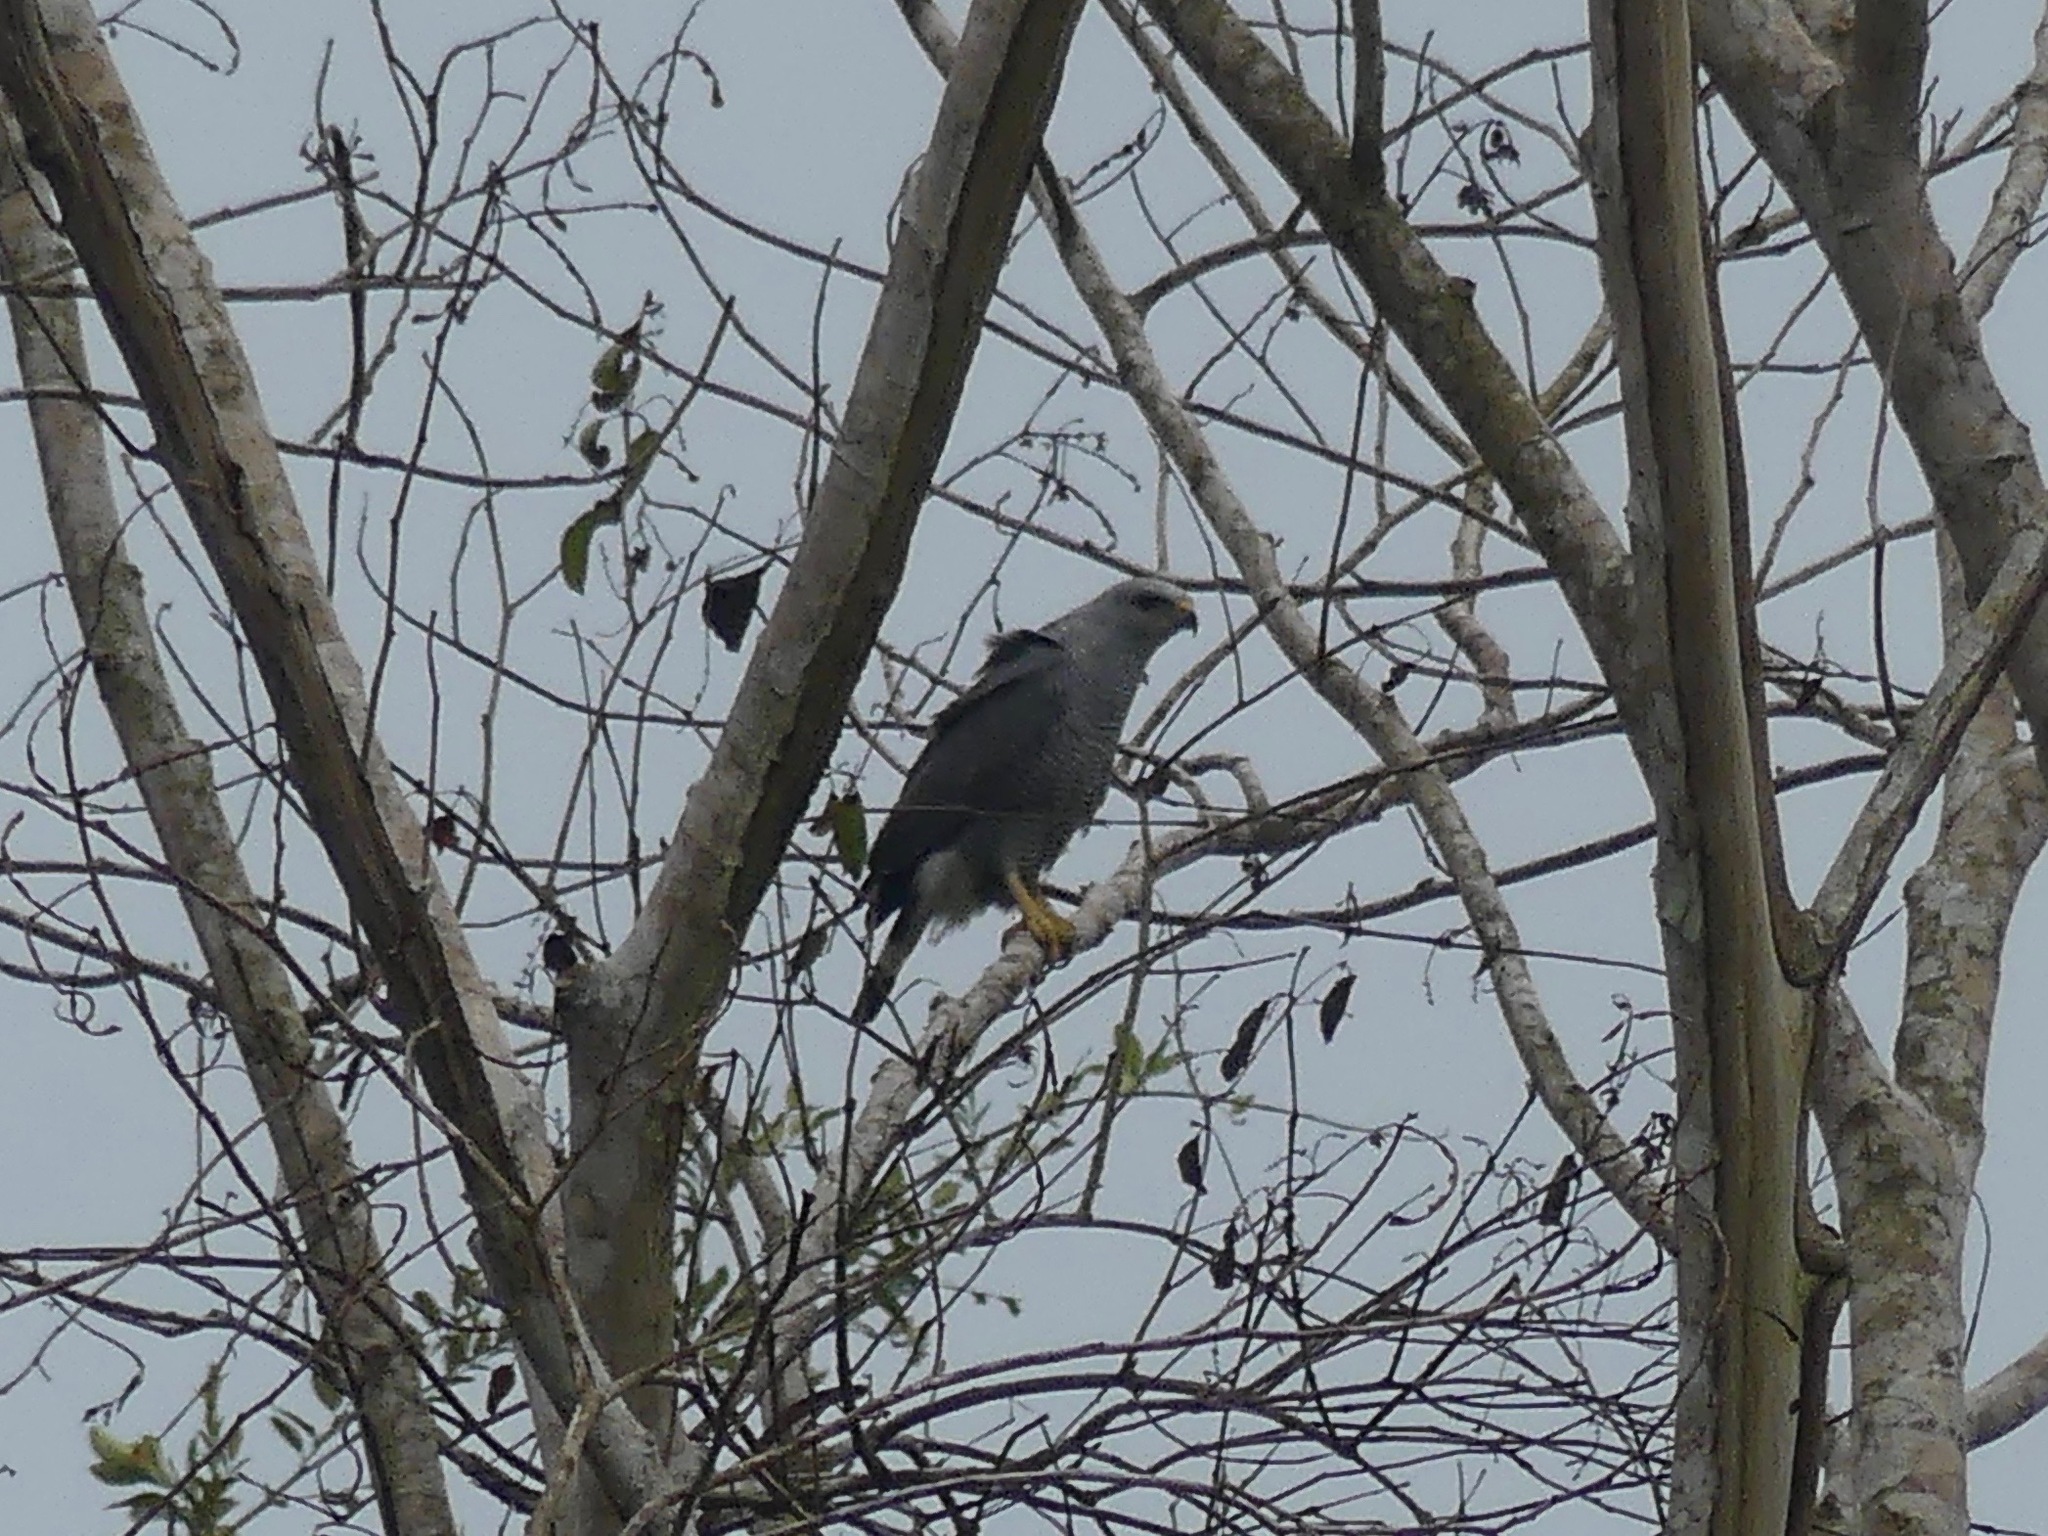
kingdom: Animalia
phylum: Chordata
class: Aves
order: Accipitriformes
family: Accipitridae
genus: Buteo
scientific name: Buteo nitidus
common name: Grey-lined hawk
